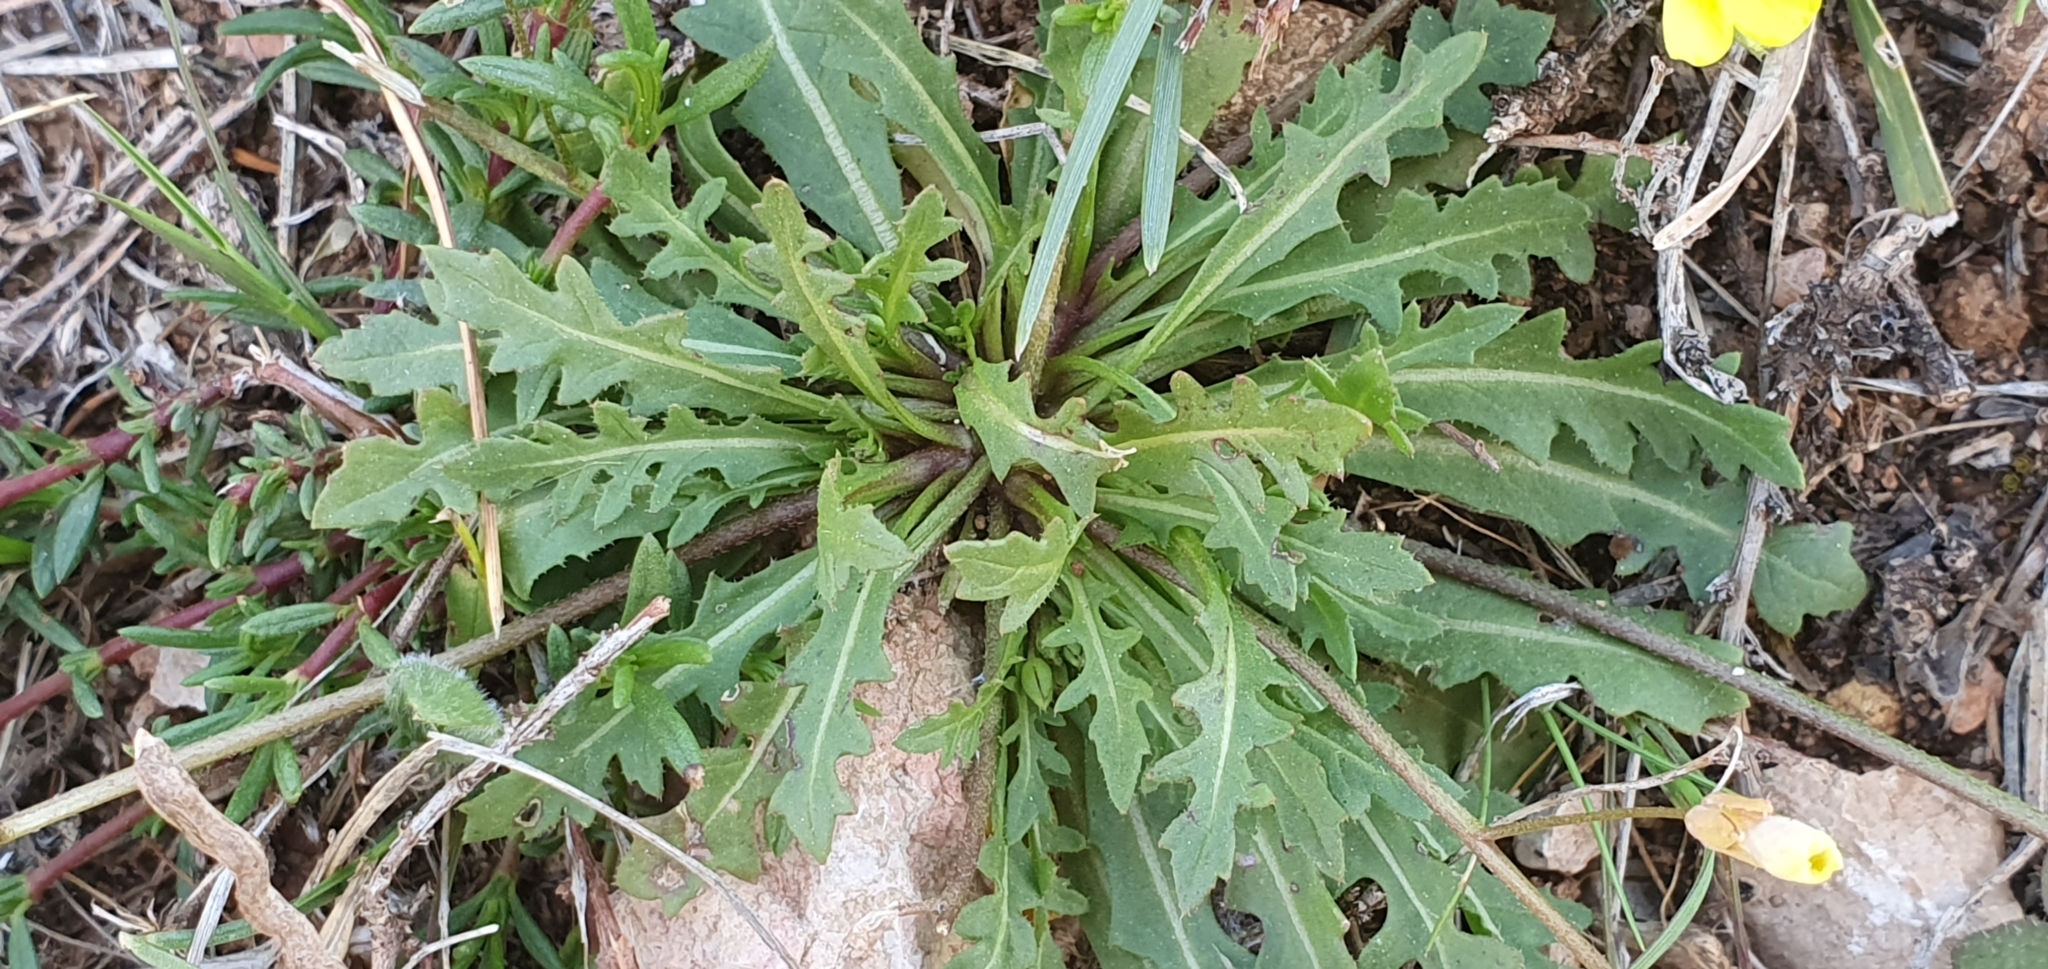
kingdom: Plantae
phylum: Tracheophyta
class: Magnoliopsida
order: Brassicales
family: Brassicaceae
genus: Diplotaxis
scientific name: Diplotaxis muralis
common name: Annual wall-rocket
